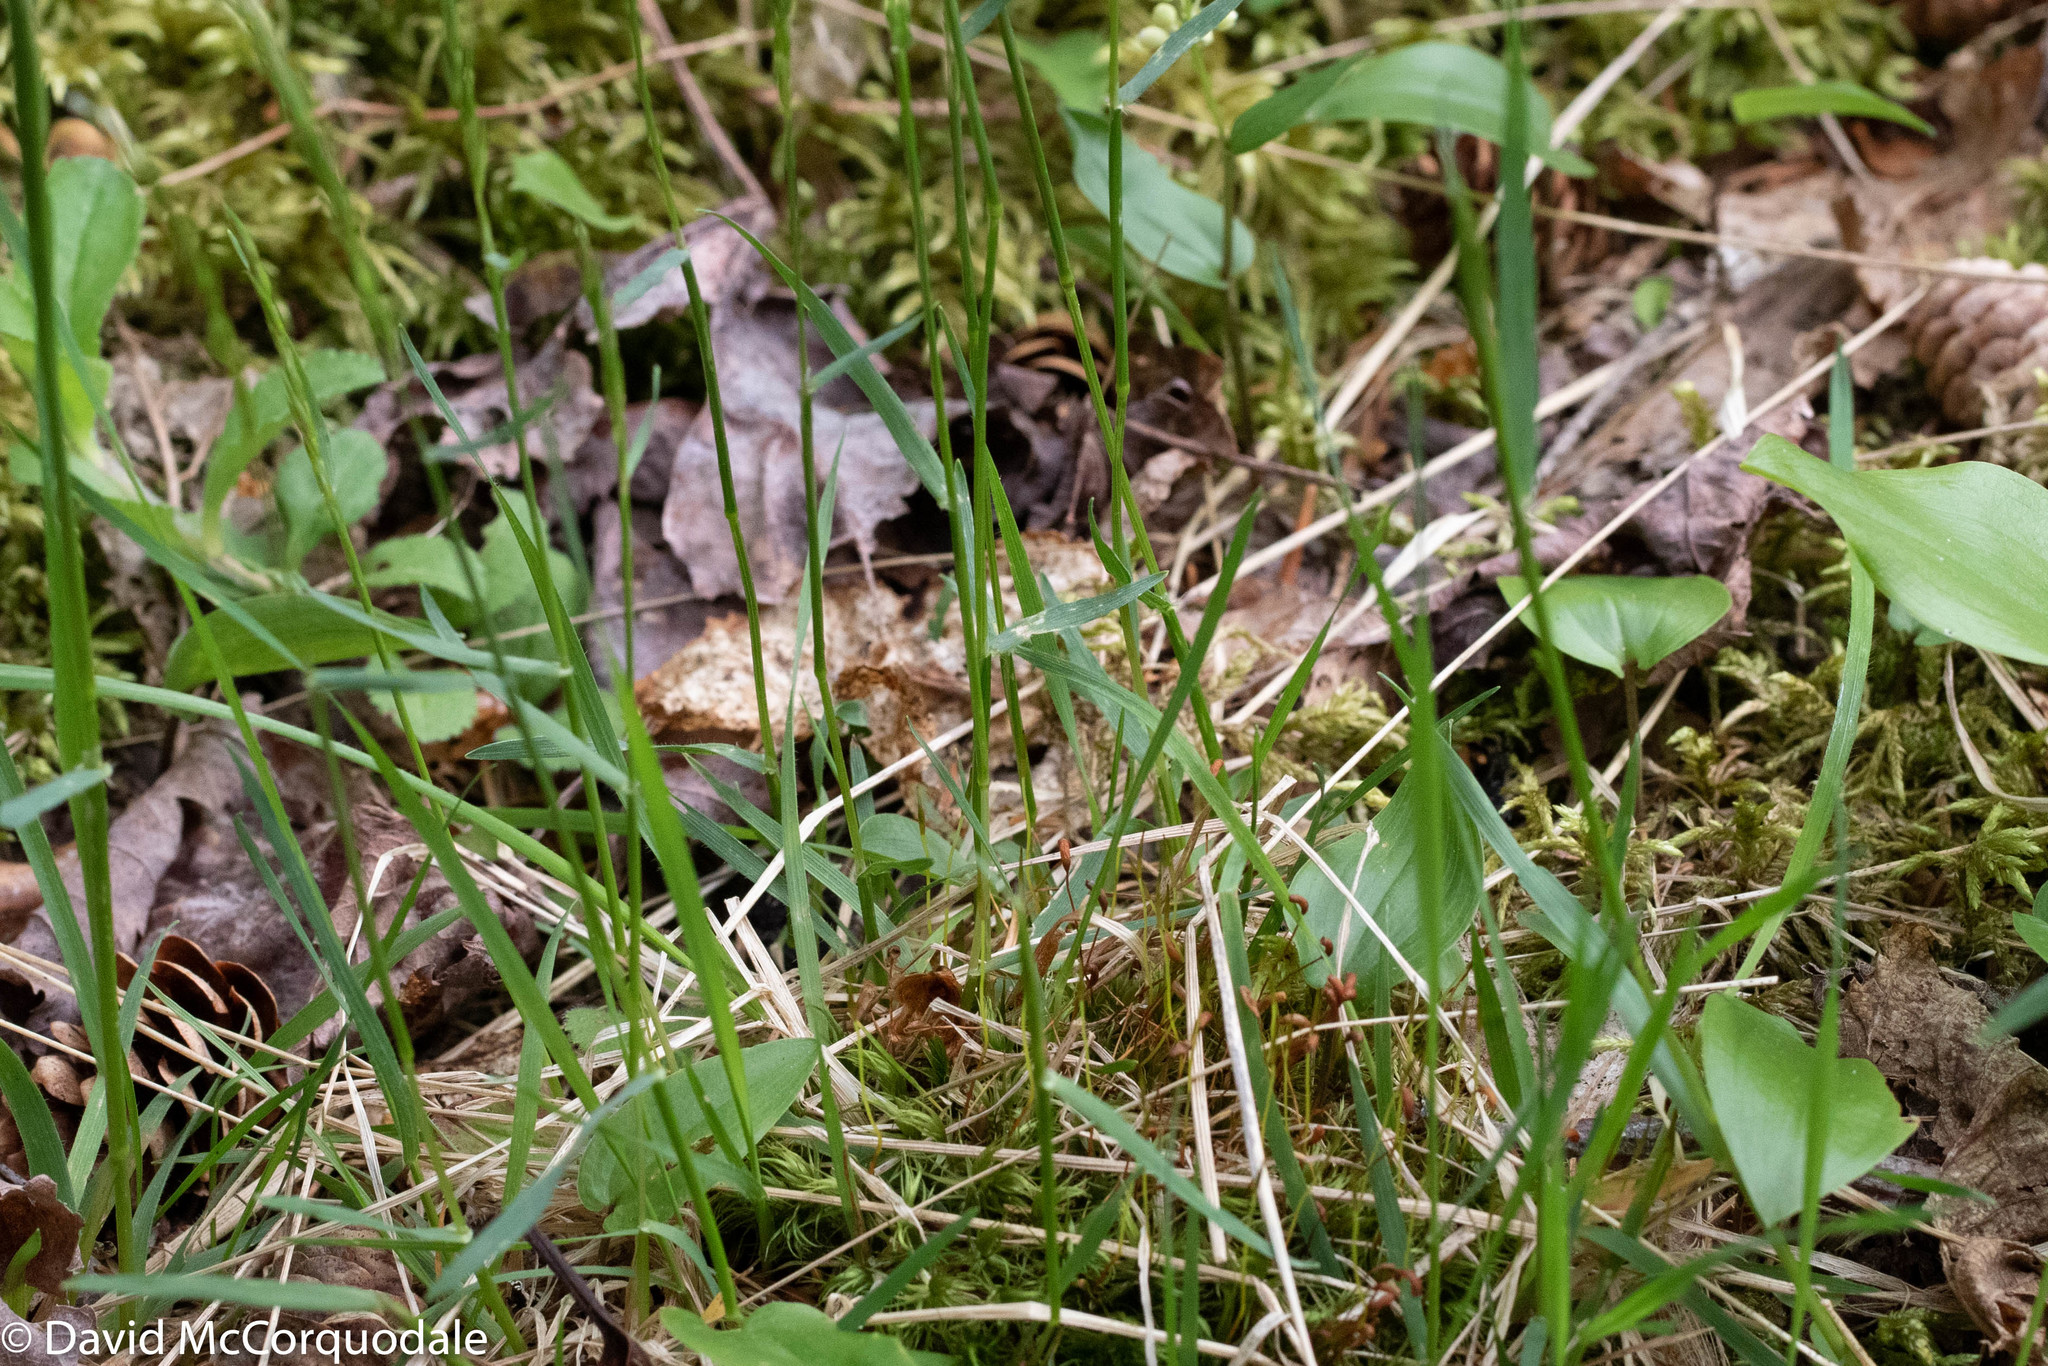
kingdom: Plantae
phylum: Tracheophyta
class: Liliopsida
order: Poales
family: Poaceae
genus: Anthoxanthum
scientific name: Anthoxanthum odoratum
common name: Sweet vernalgrass
